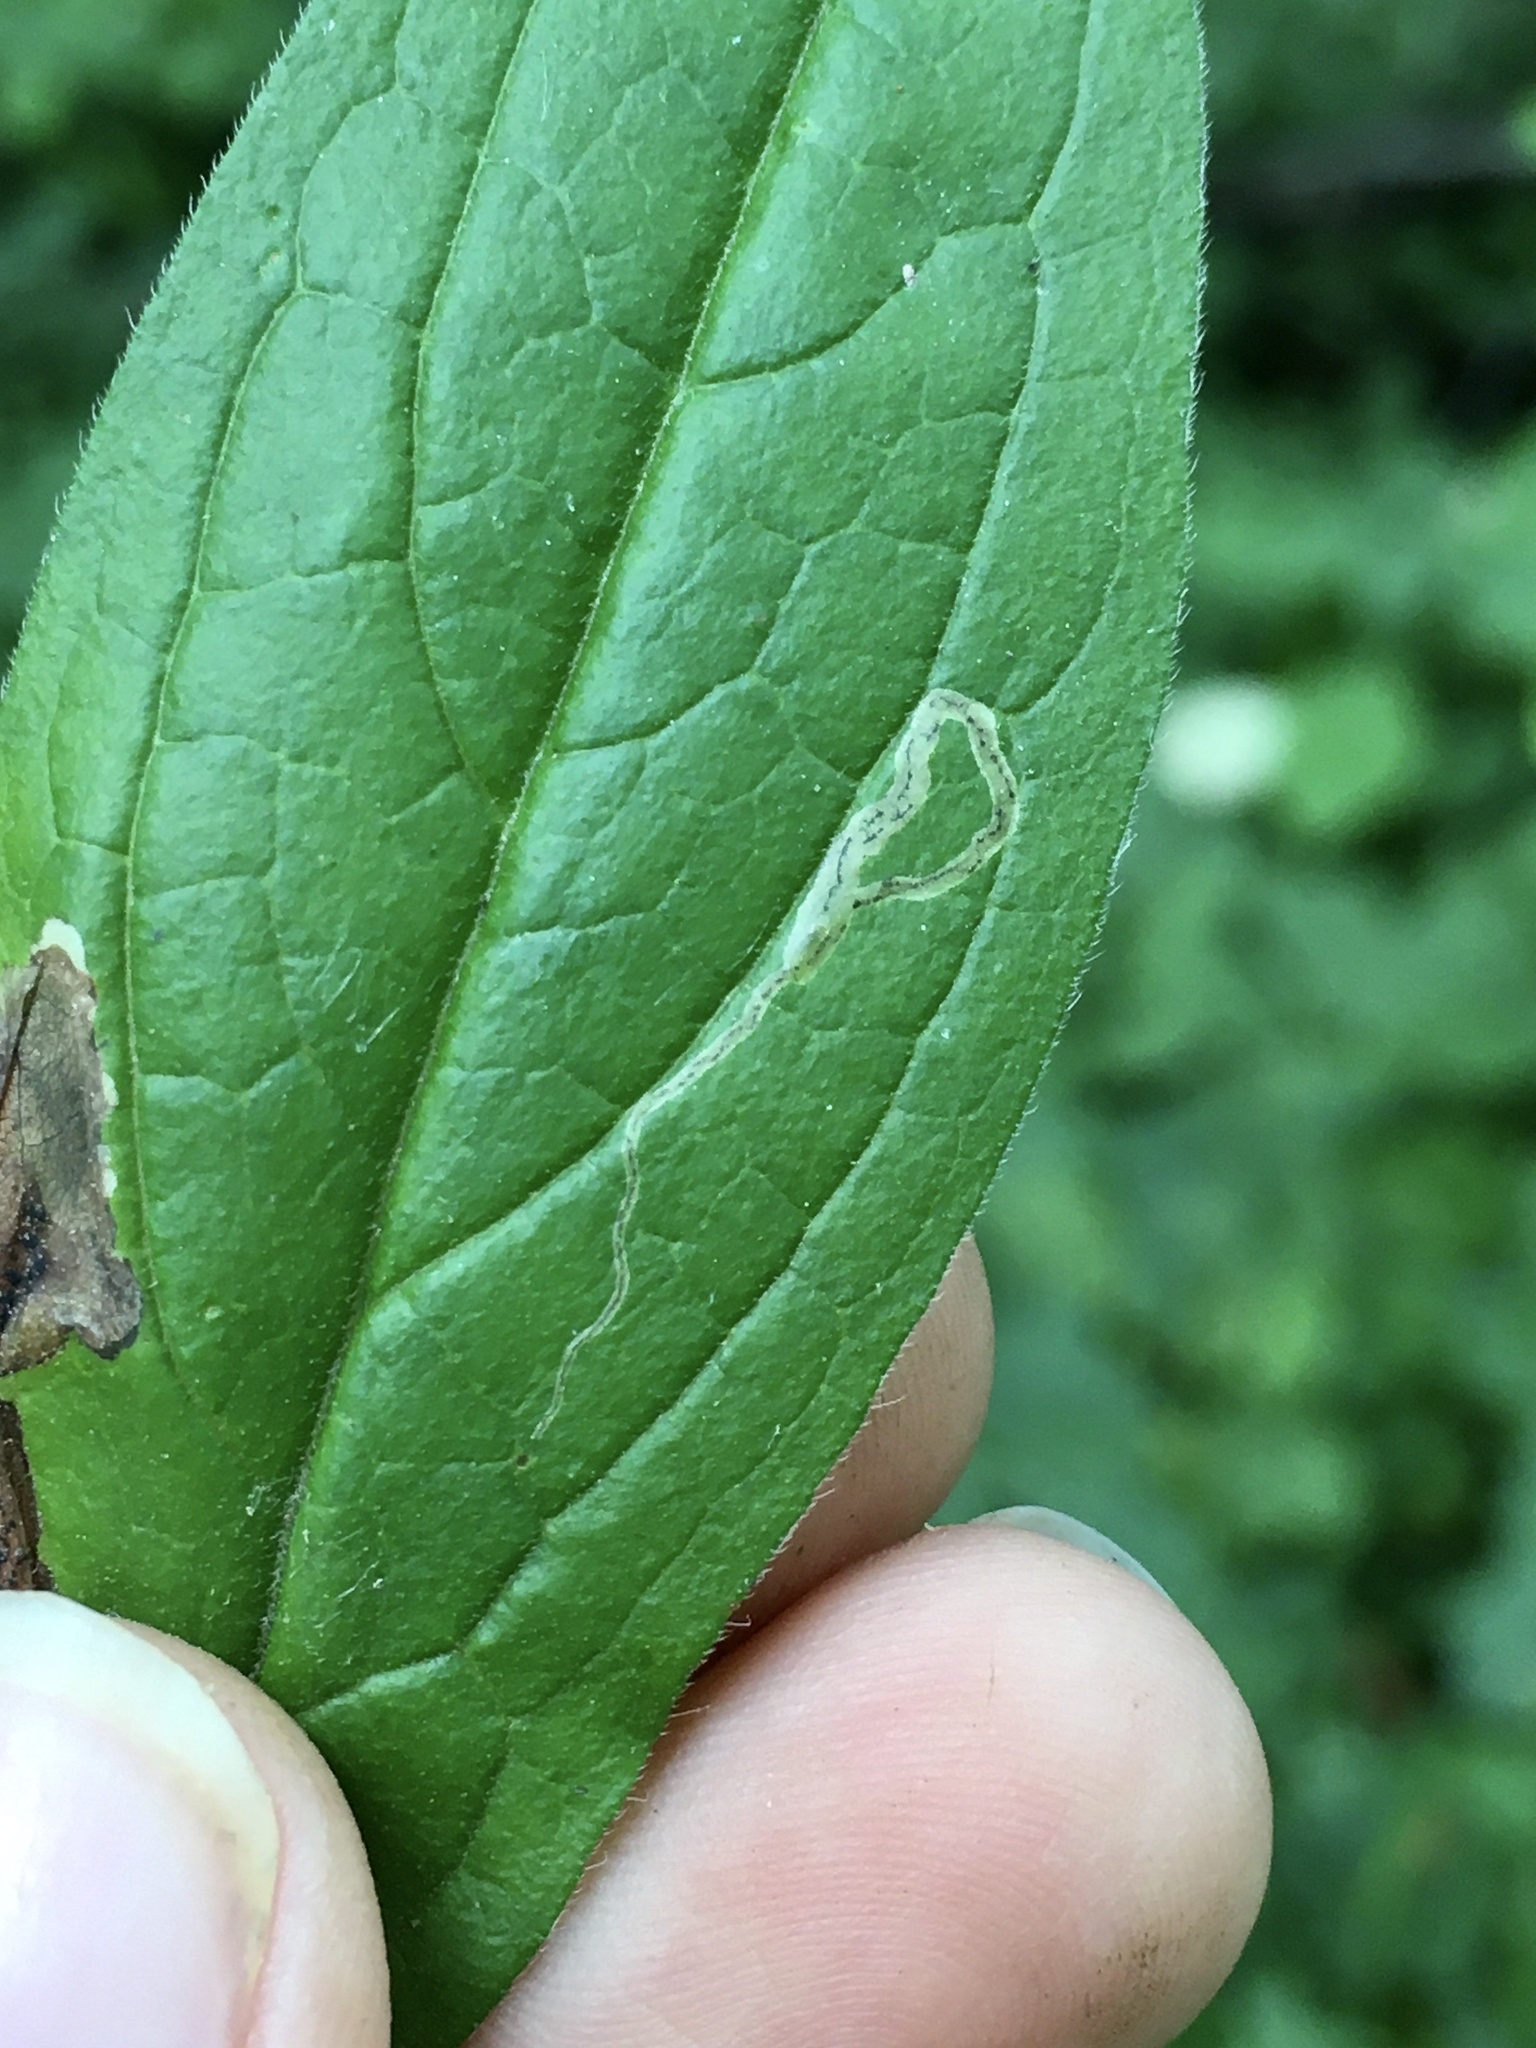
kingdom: Animalia
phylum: Arthropoda
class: Insecta
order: Diptera
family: Agromyzidae
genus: Calycomyza
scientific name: Calycomyza cynoglossi
